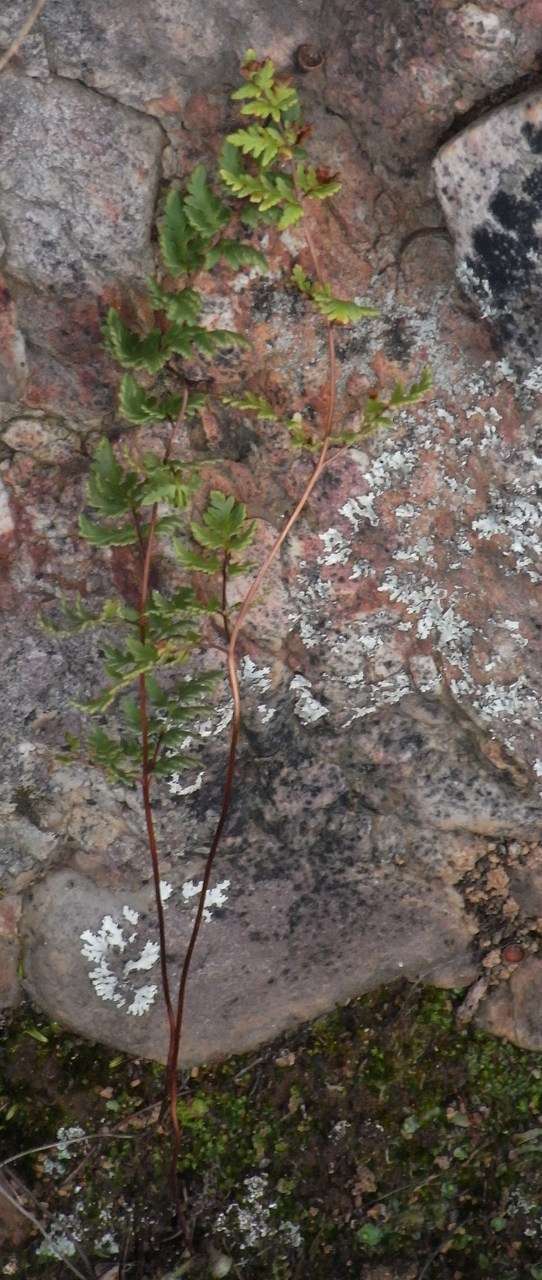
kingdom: Plantae
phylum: Tracheophyta
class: Polypodiopsida
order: Polypodiales
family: Pteridaceae
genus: Cheilanthes
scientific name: Cheilanthes sieberi
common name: Mulga fern
